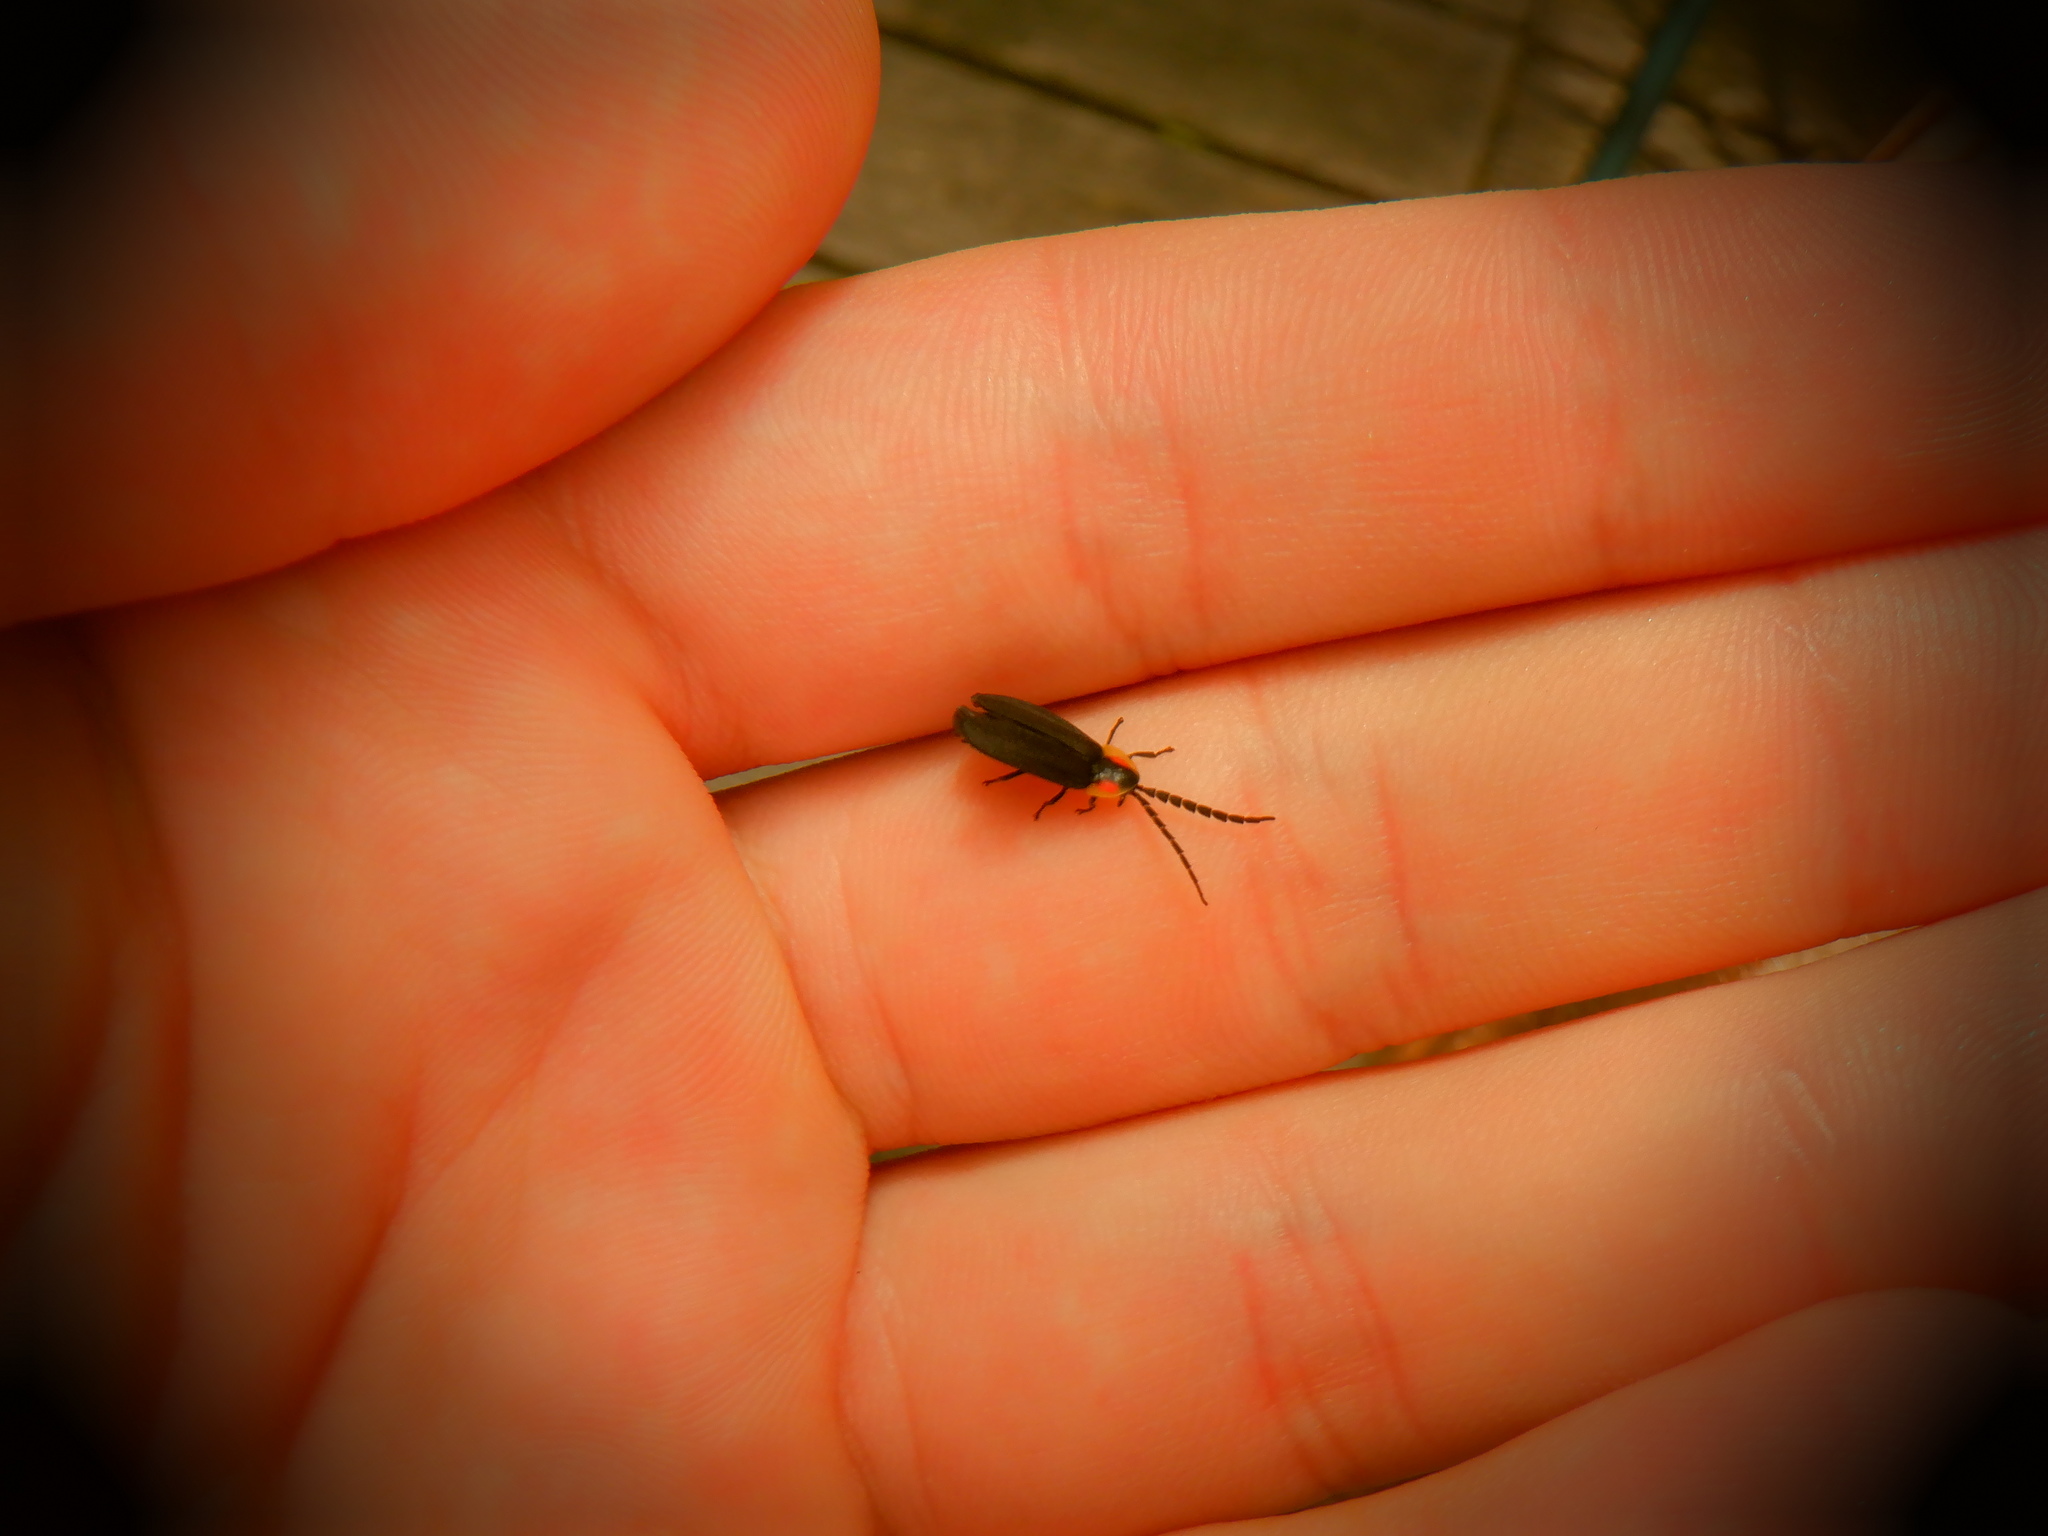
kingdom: Animalia
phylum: Arthropoda
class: Insecta
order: Coleoptera
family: Lampyridae
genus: Lucidota
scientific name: Lucidota atra
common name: Black firefly
